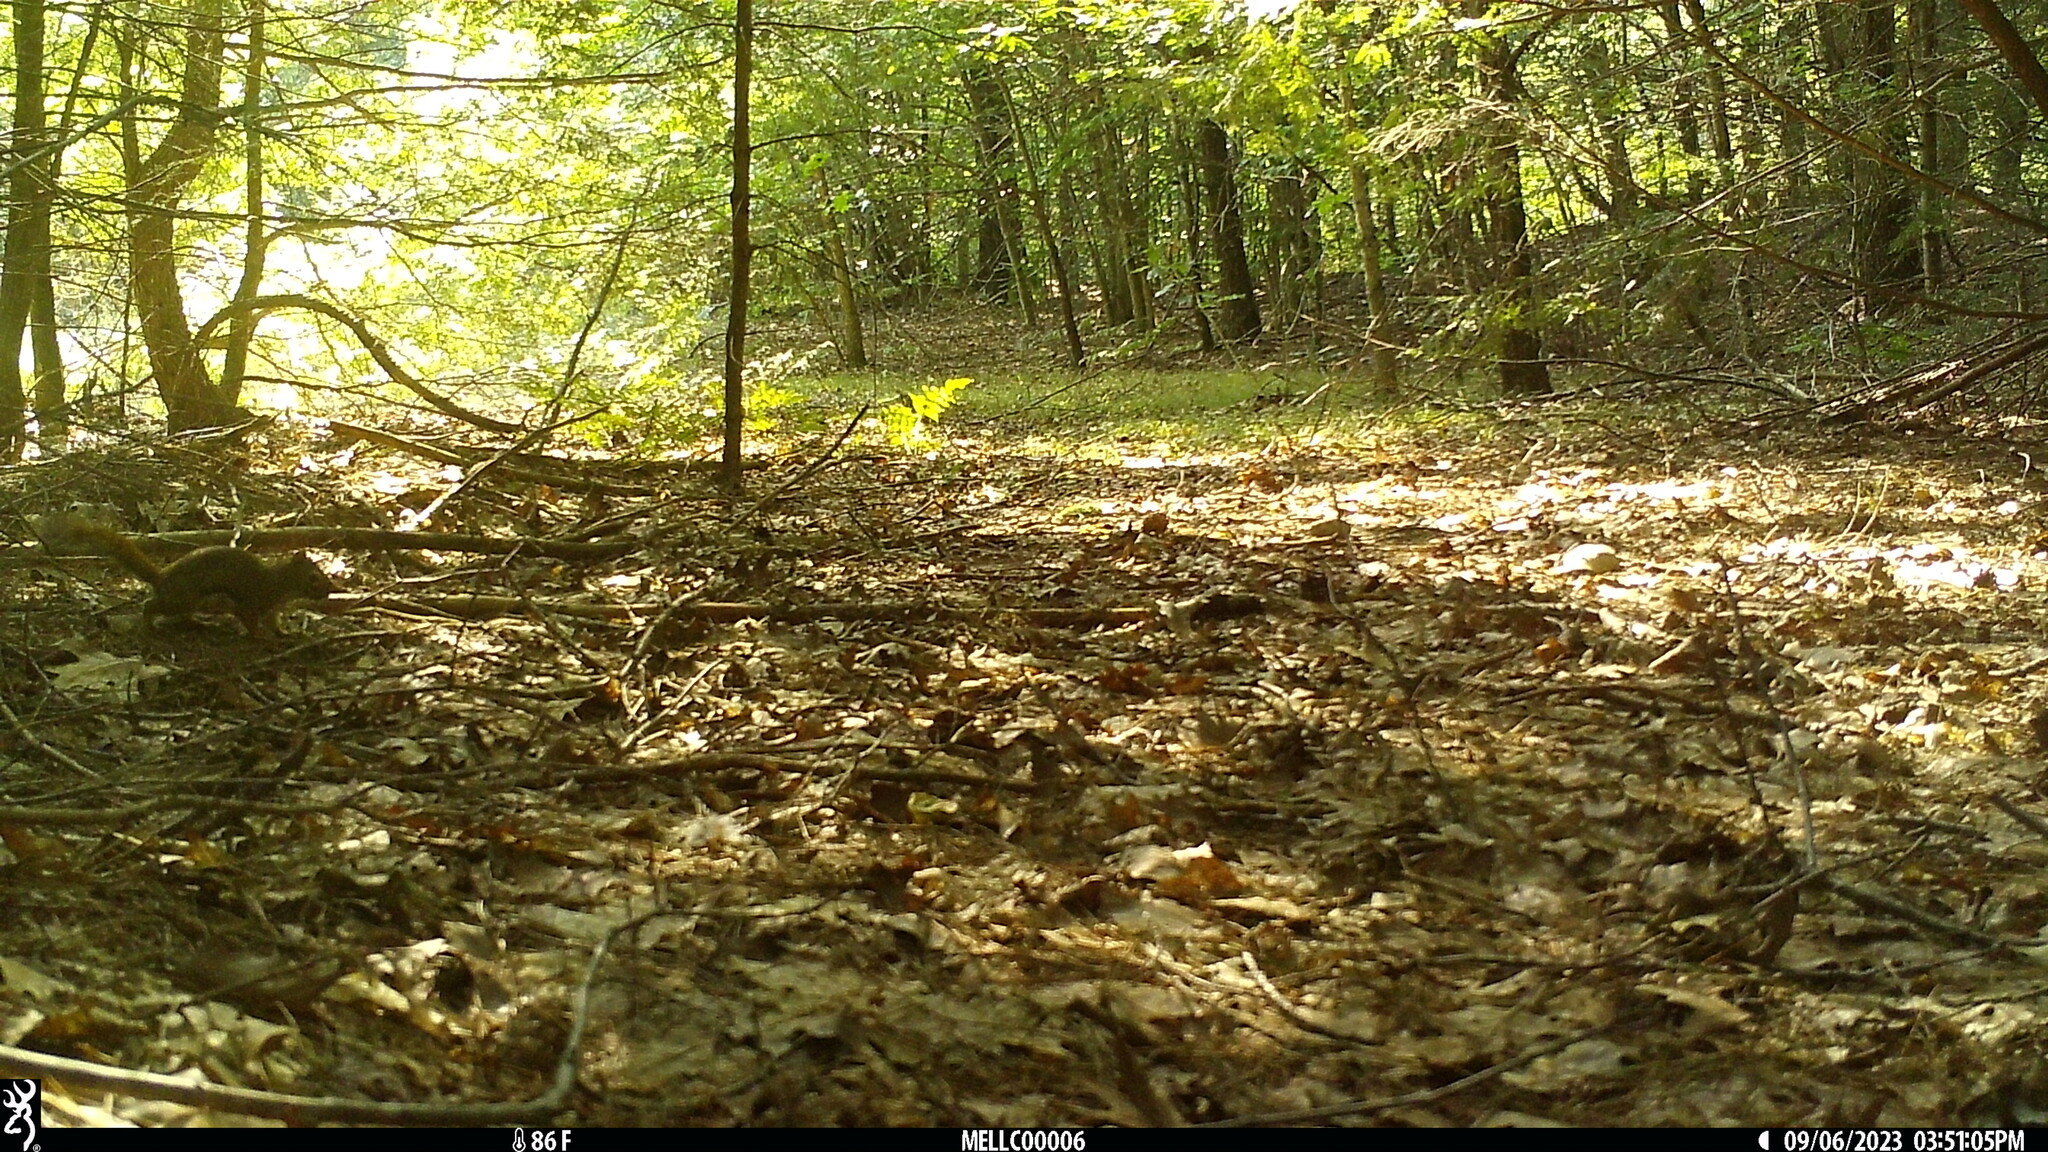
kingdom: Animalia
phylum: Chordata
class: Mammalia
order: Rodentia
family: Sciuridae
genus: Tamiasciurus
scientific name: Tamiasciurus hudsonicus
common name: Red squirrel
